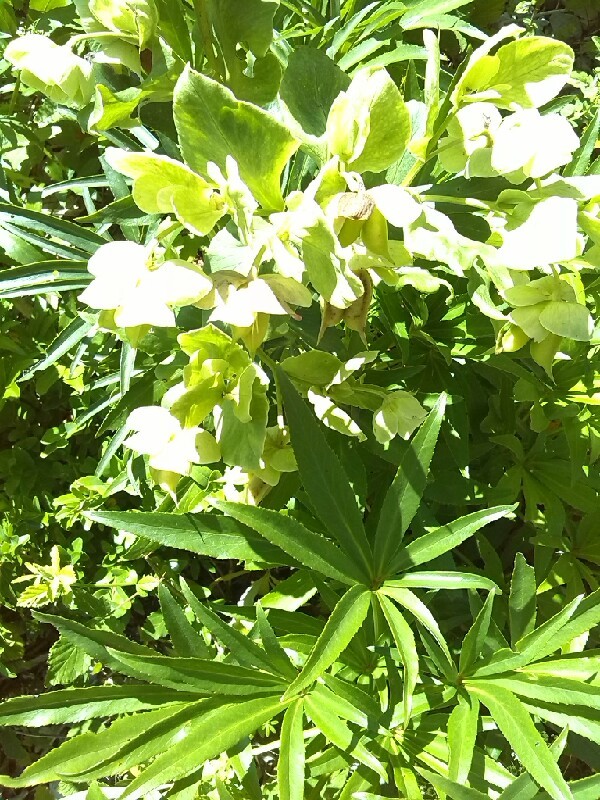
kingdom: Plantae
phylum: Tracheophyta
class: Magnoliopsida
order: Ranunculales
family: Ranunculaceae
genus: Helleborus
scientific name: Helleborus foetidus
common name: Stinking hellebore
